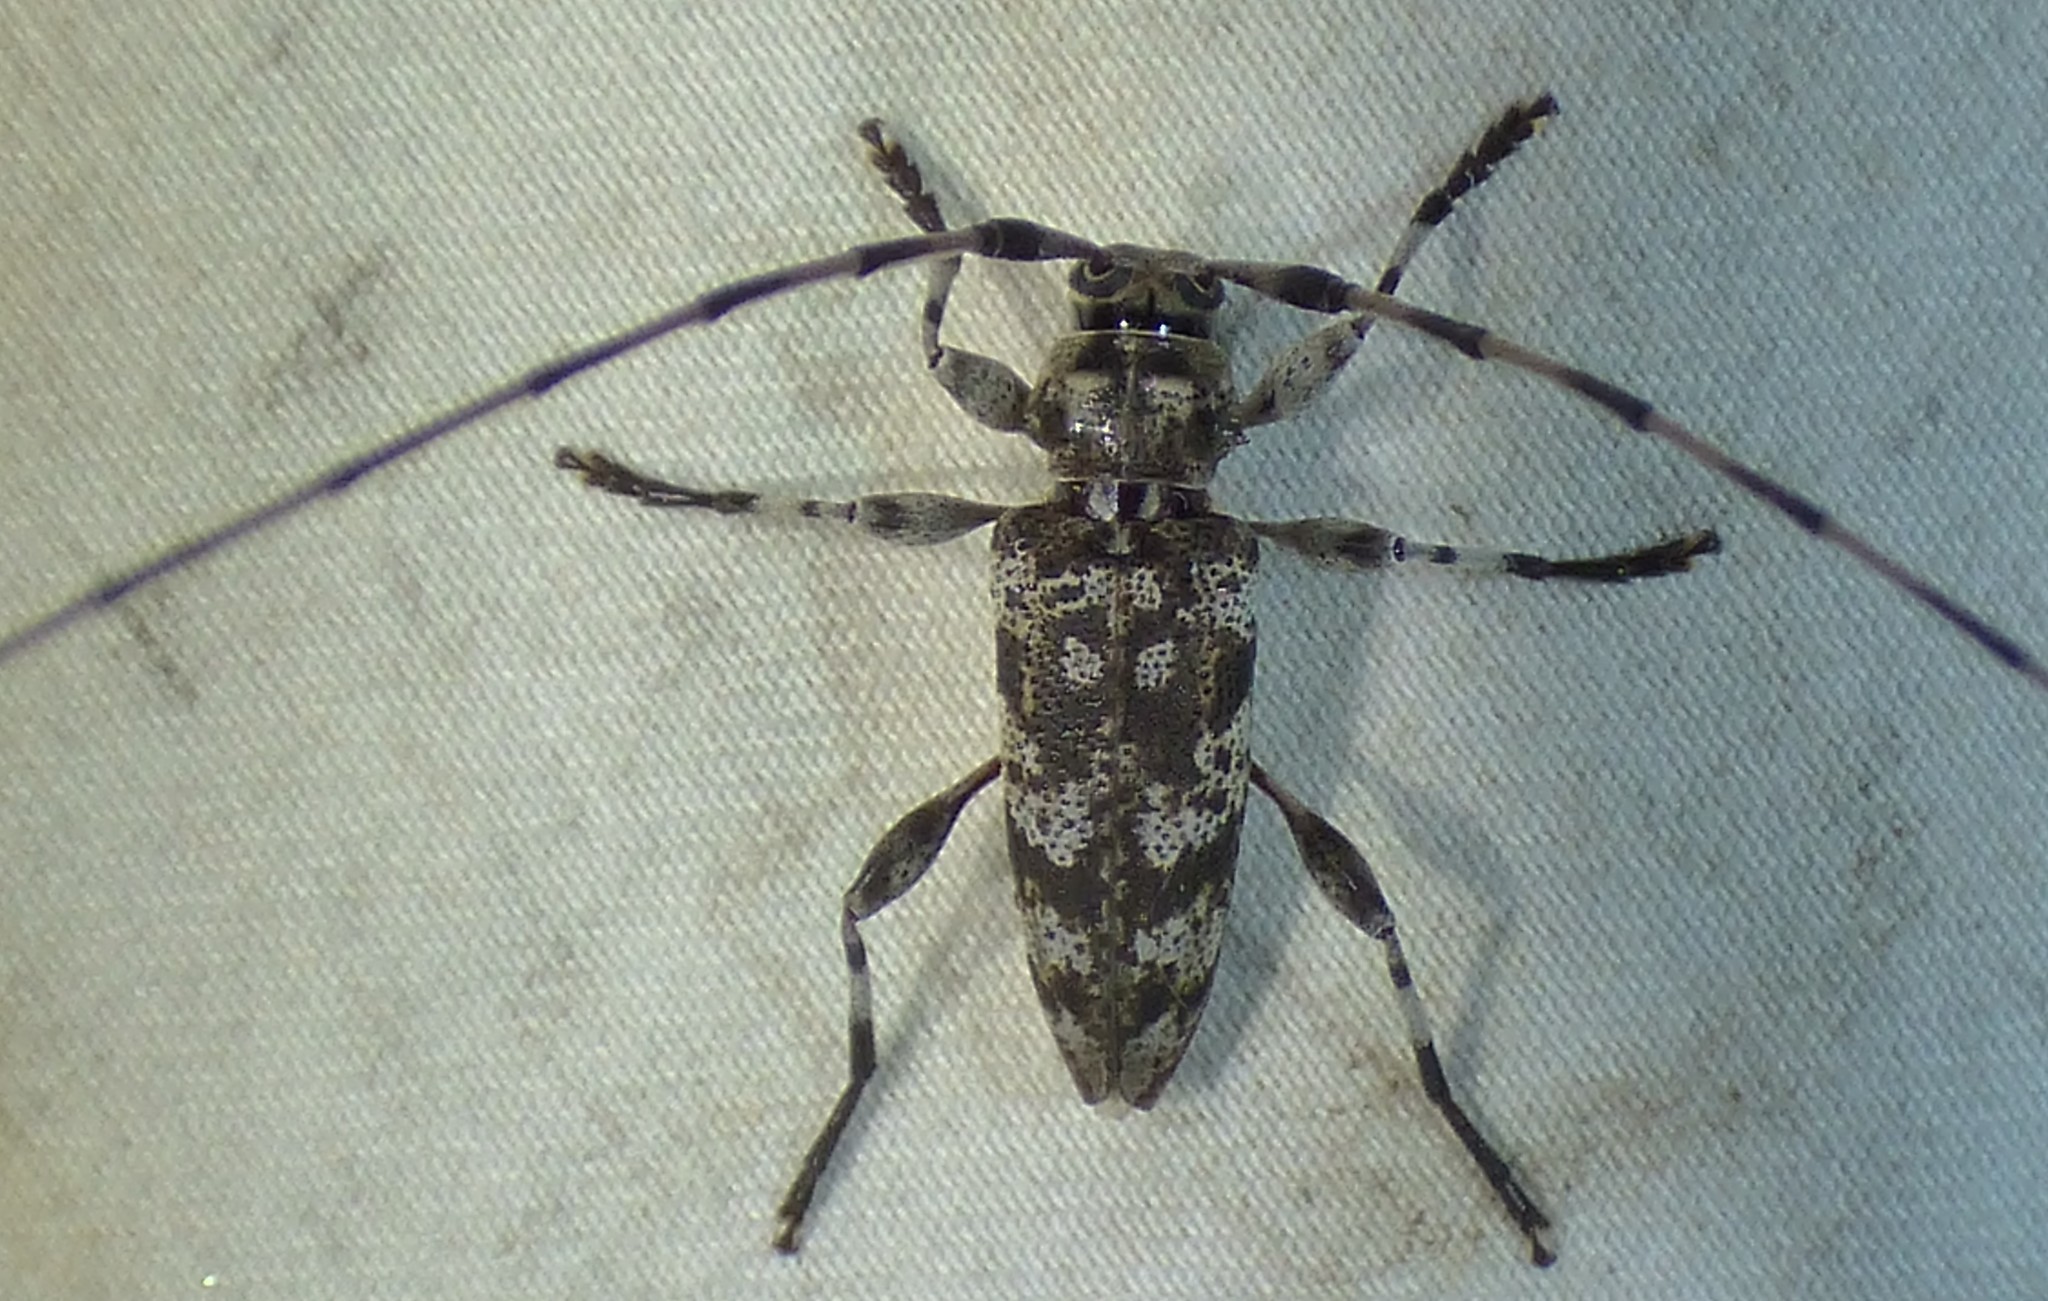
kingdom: Animalia
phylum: Arthropoda
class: Insecta
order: Coleoptera
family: Cerambycidae
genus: Acanthocinus
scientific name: Acanthocinus obsoletus
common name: Roundheaded borer
